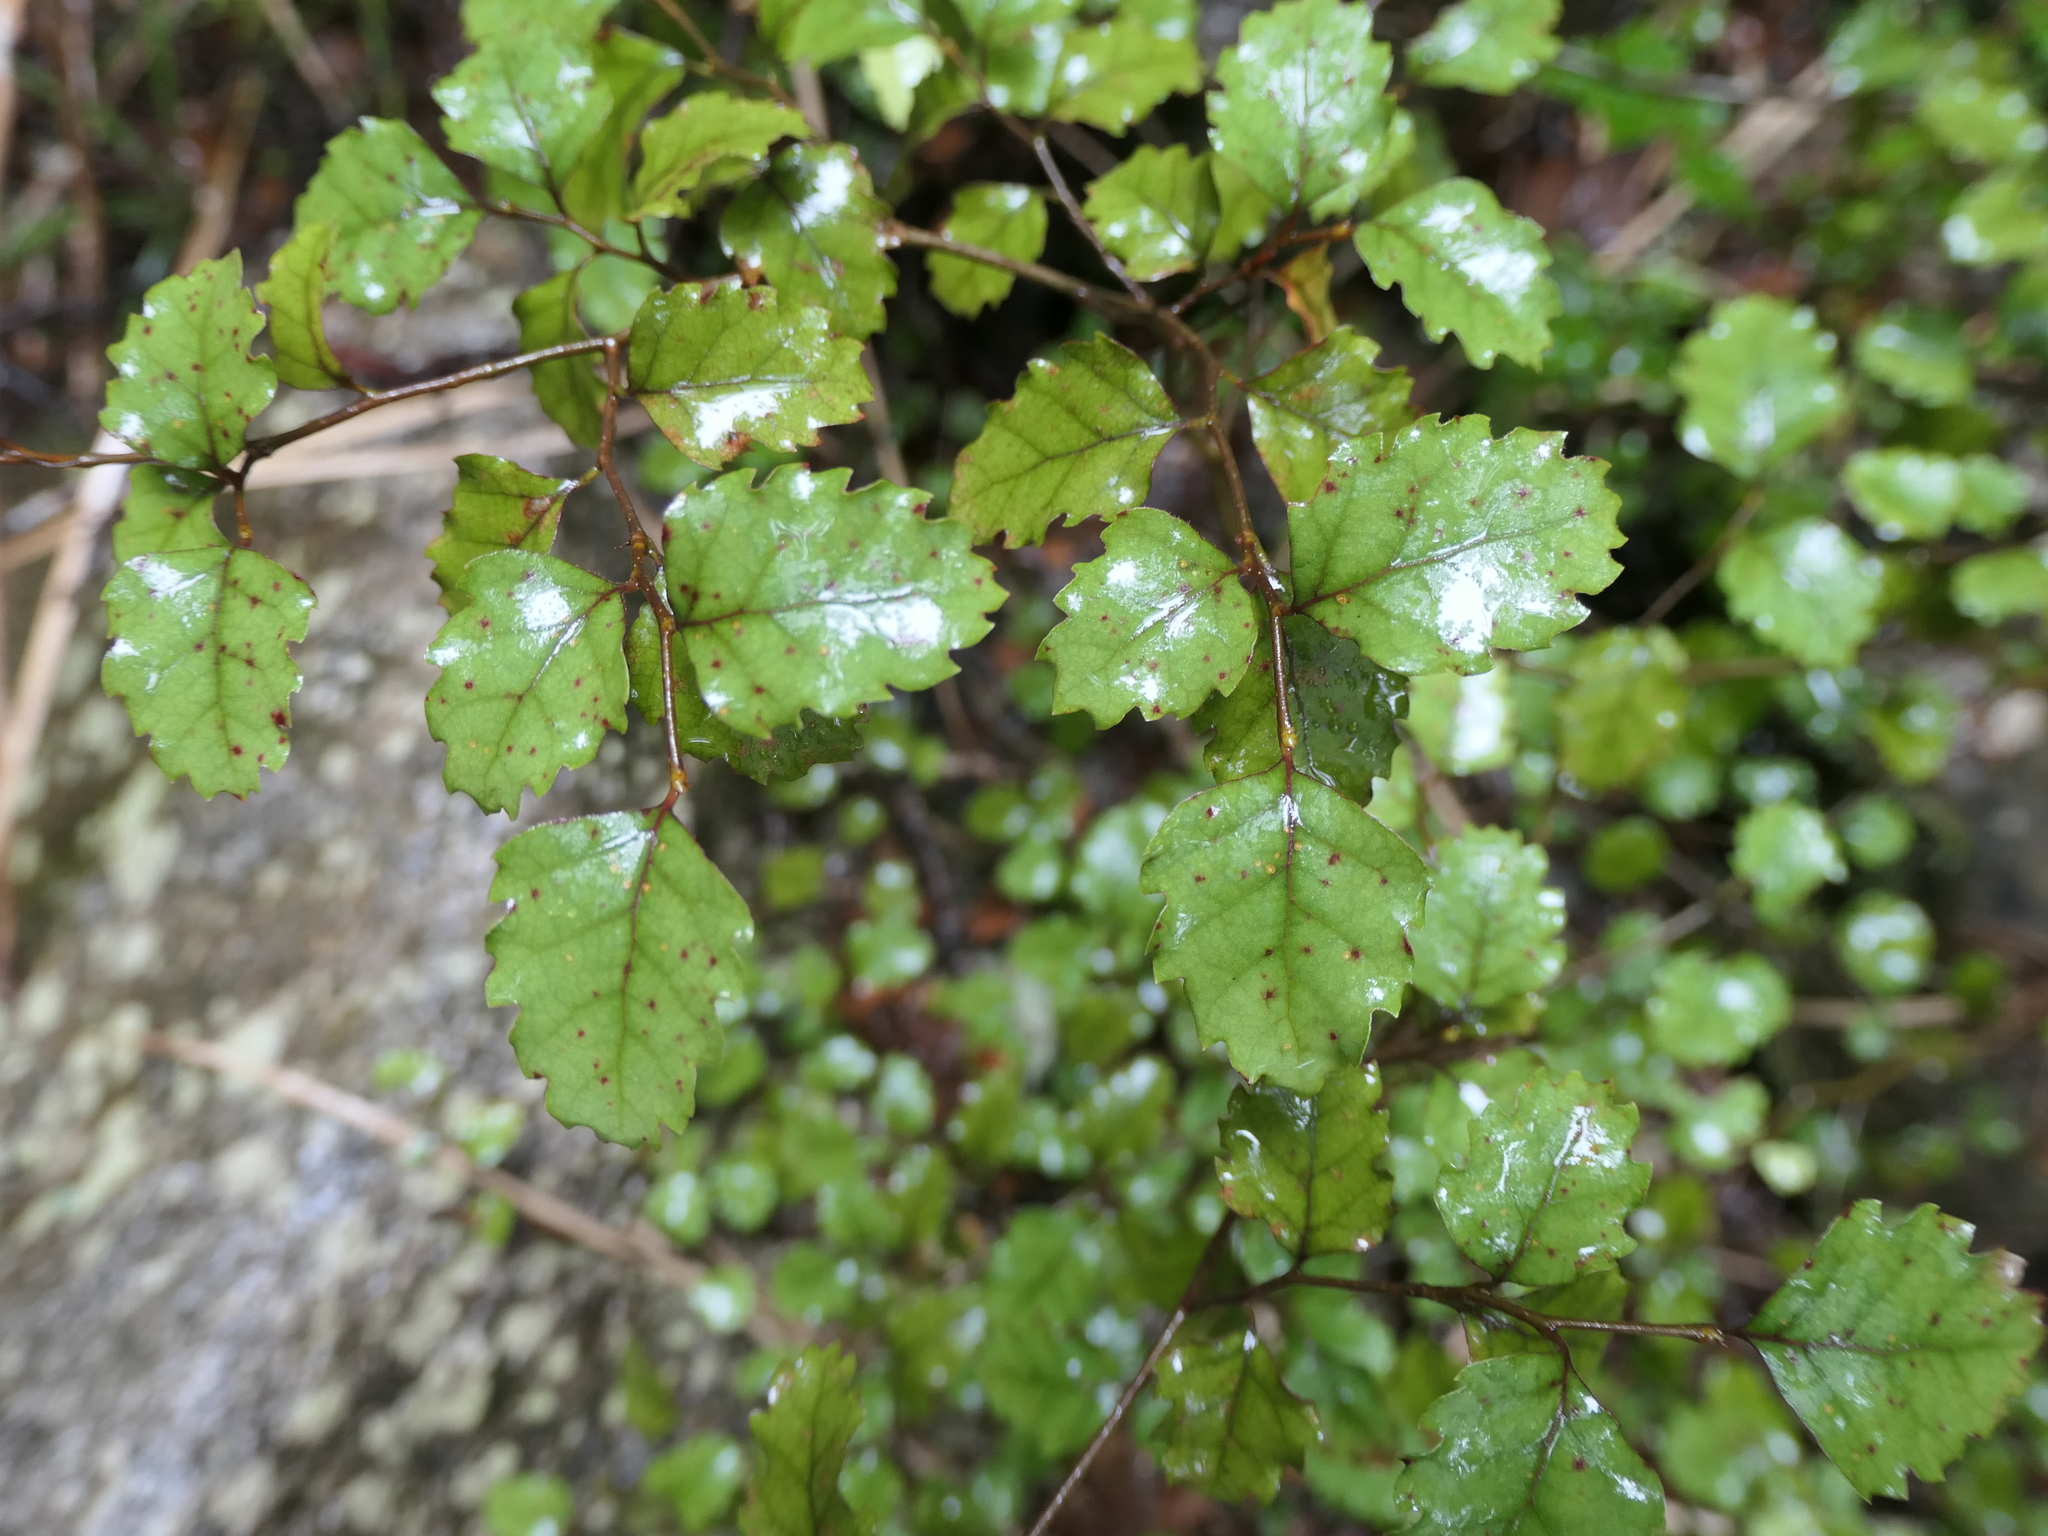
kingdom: Plantae
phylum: Tracheophyta
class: Magnoliopsida
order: Fagales
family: Nothofagaceae
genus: Nothofagus
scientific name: Nothofagus fusca
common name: Red beech
